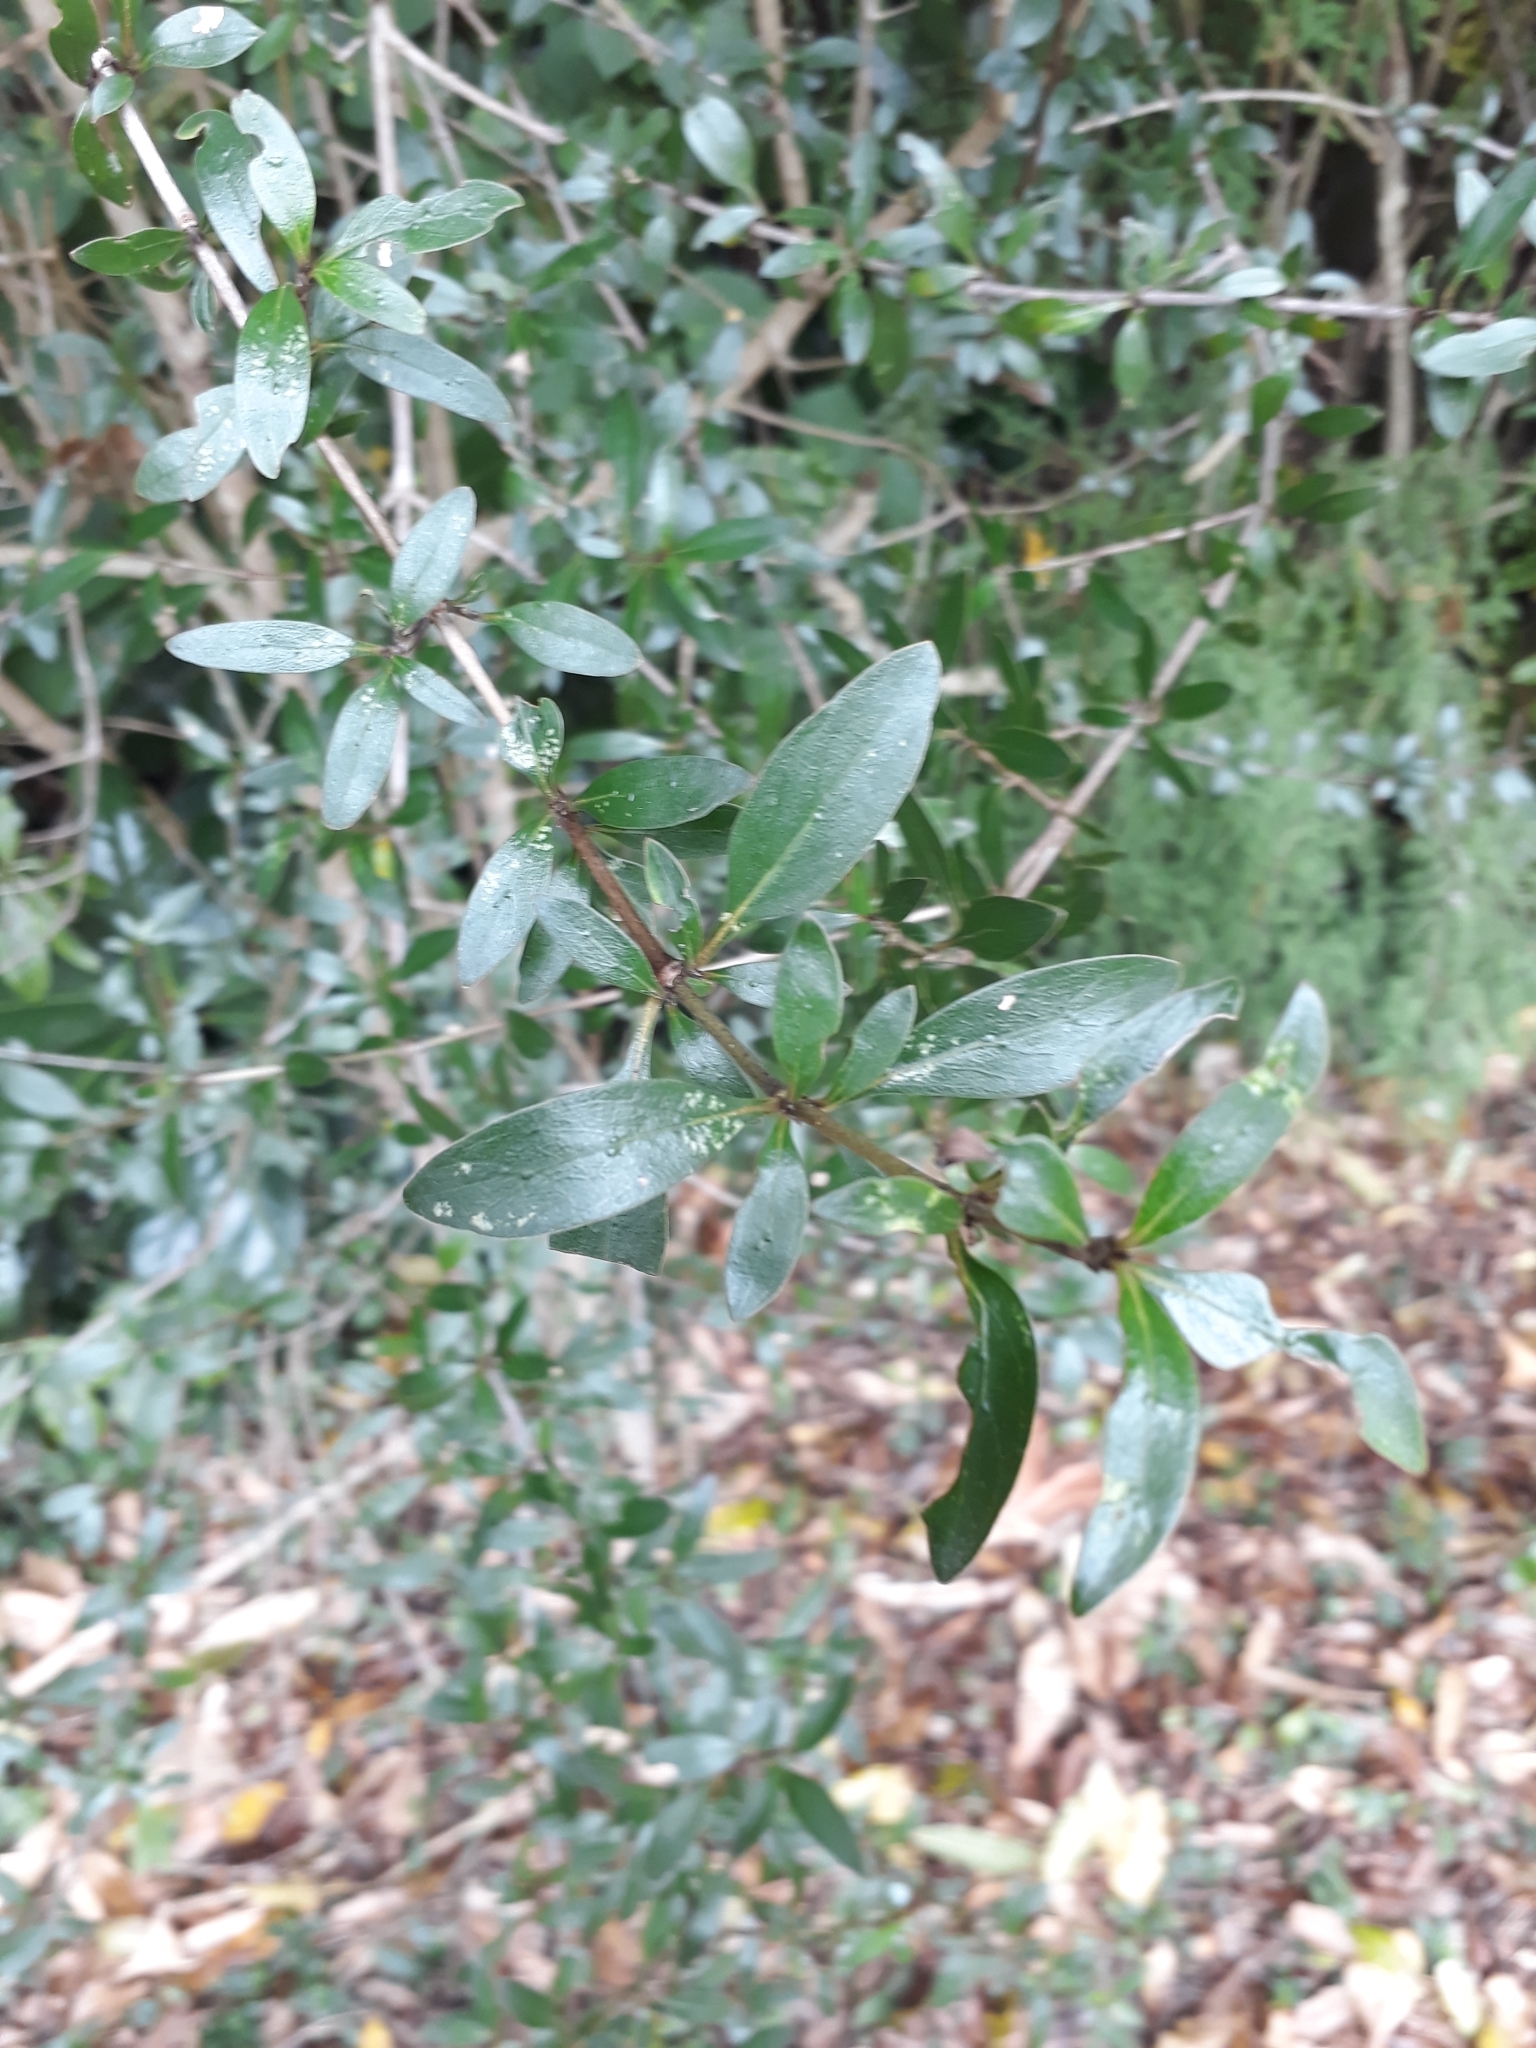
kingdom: Plantae
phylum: Tracheophyta
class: Magnoliopsida
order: Gentianales
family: Rubiaceae
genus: Coprosma
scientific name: Coprosma cunninghamii
